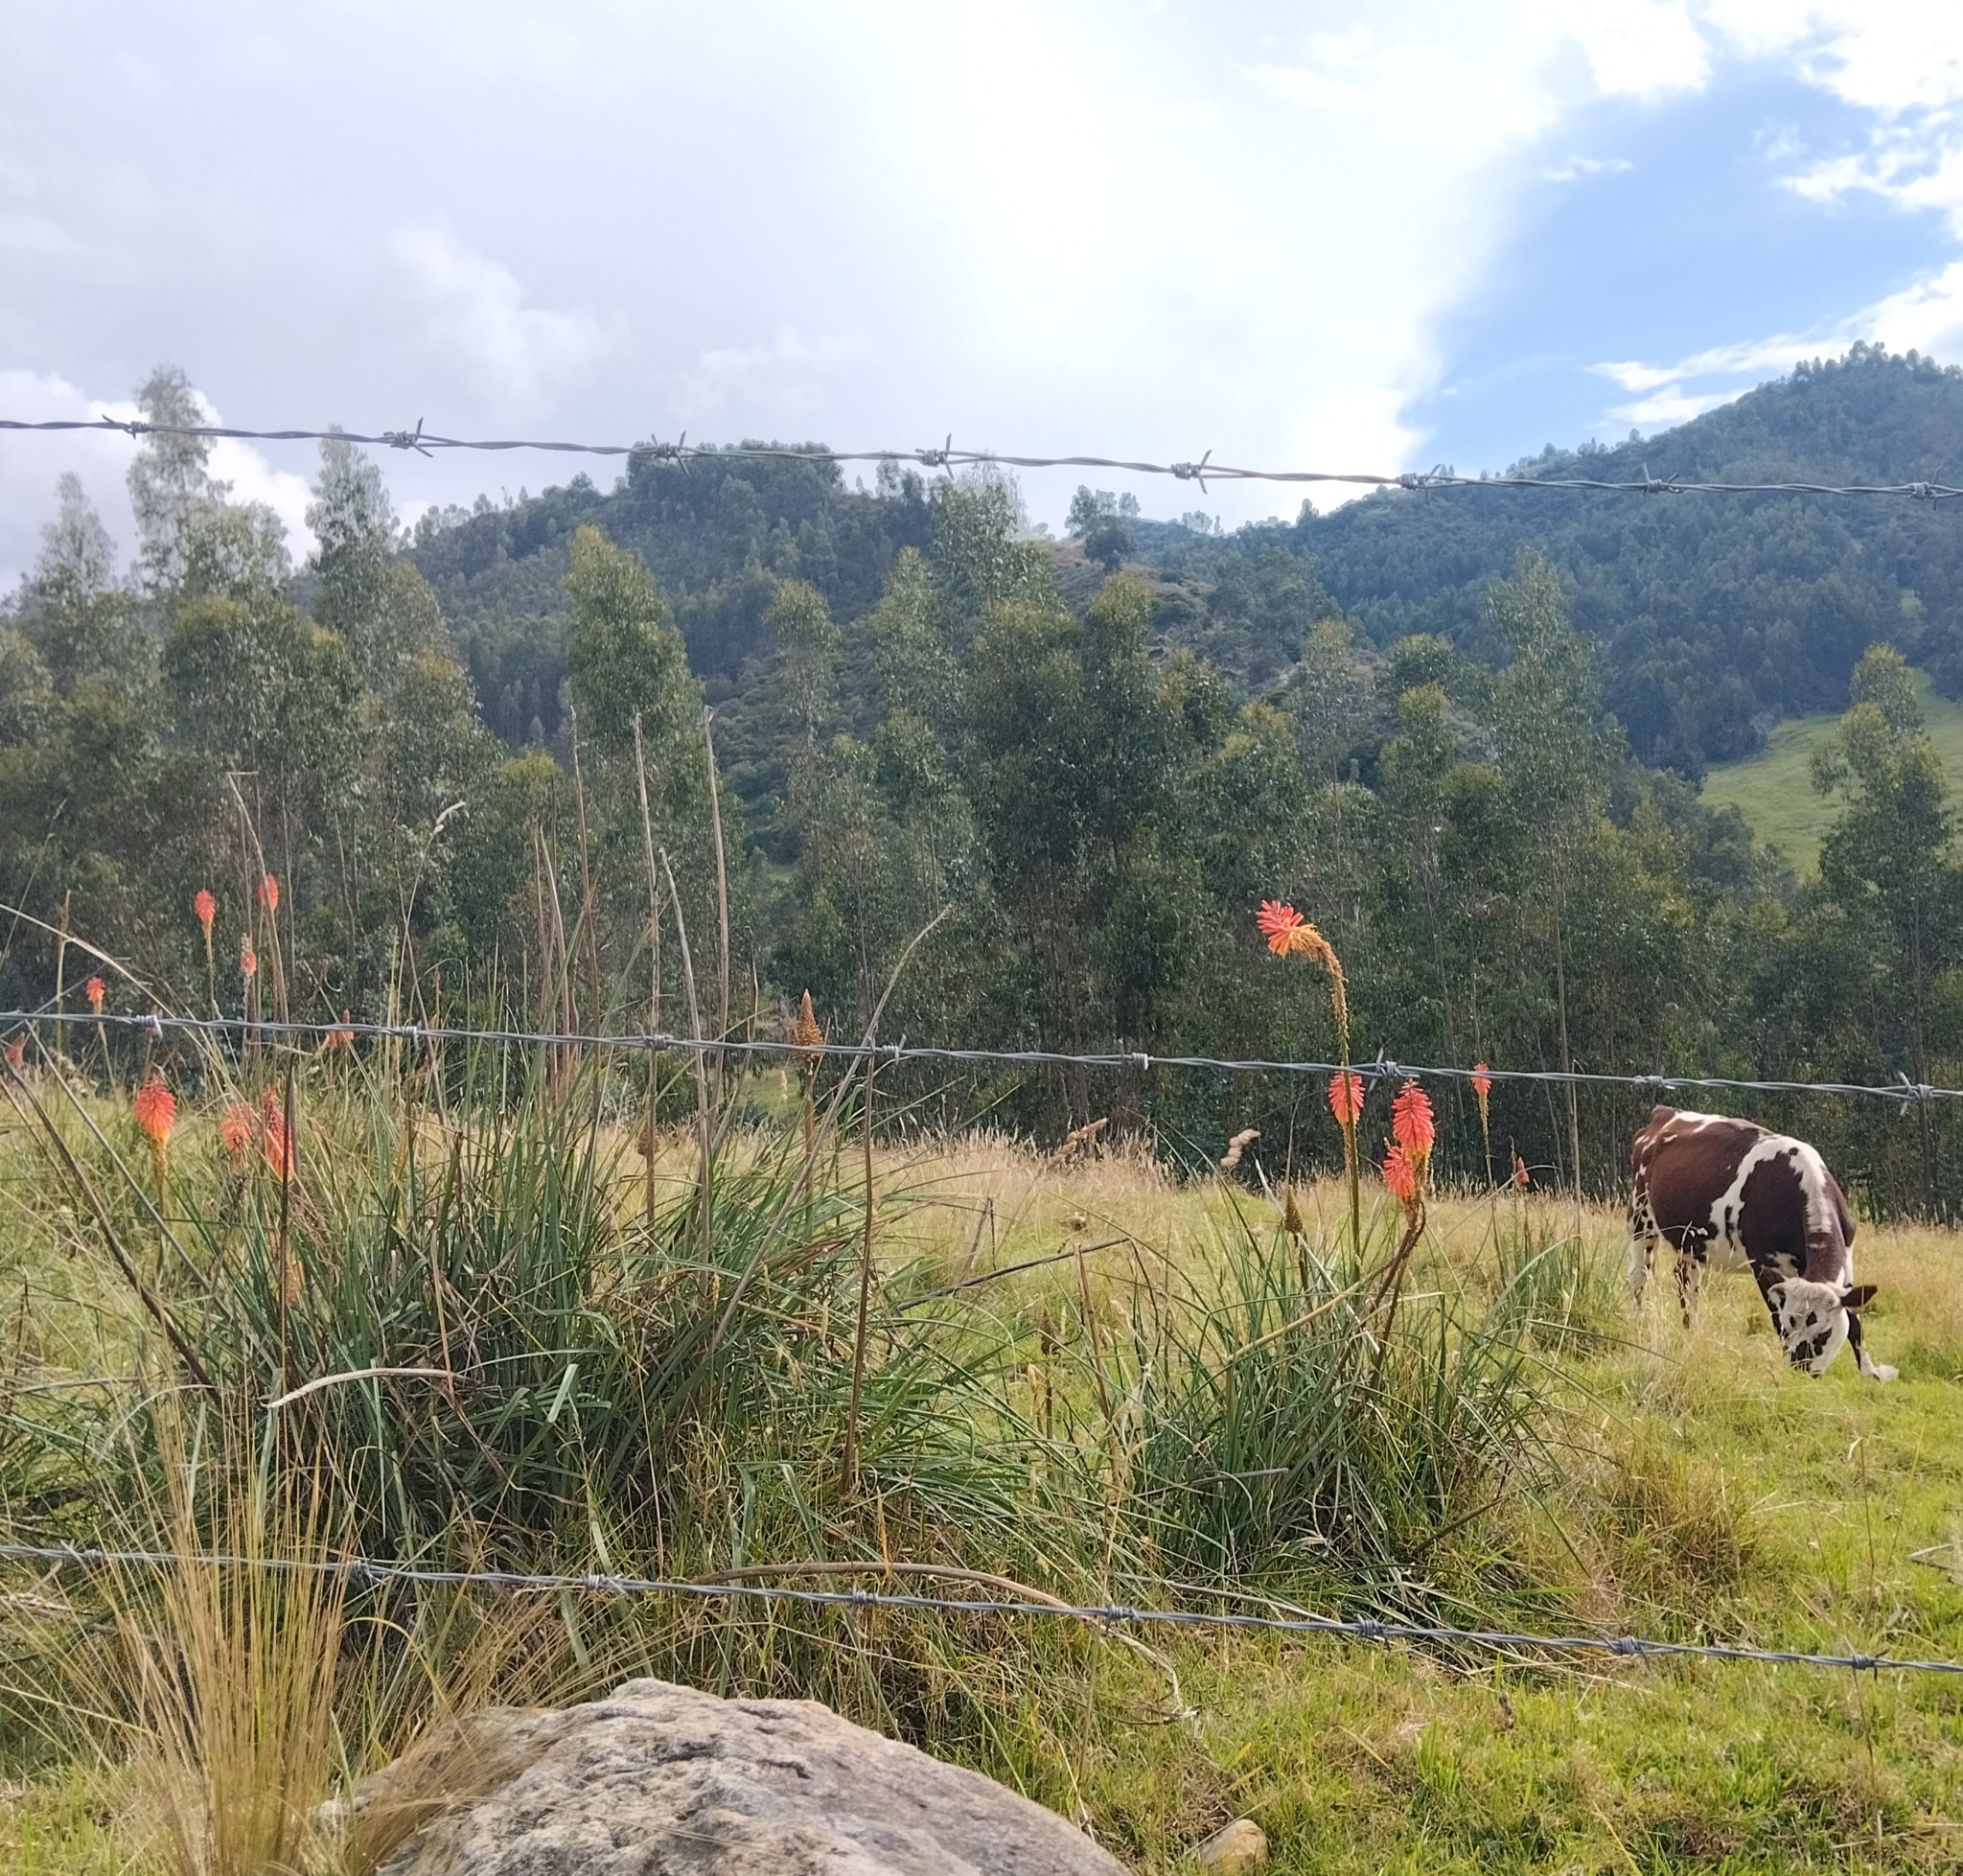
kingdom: Plantae
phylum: Tracheophyta
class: Liliopsida
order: Asparagales
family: Asphodelaceae
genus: Kniphofia
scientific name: Kniphofia uvaria
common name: Red-hot-poker
